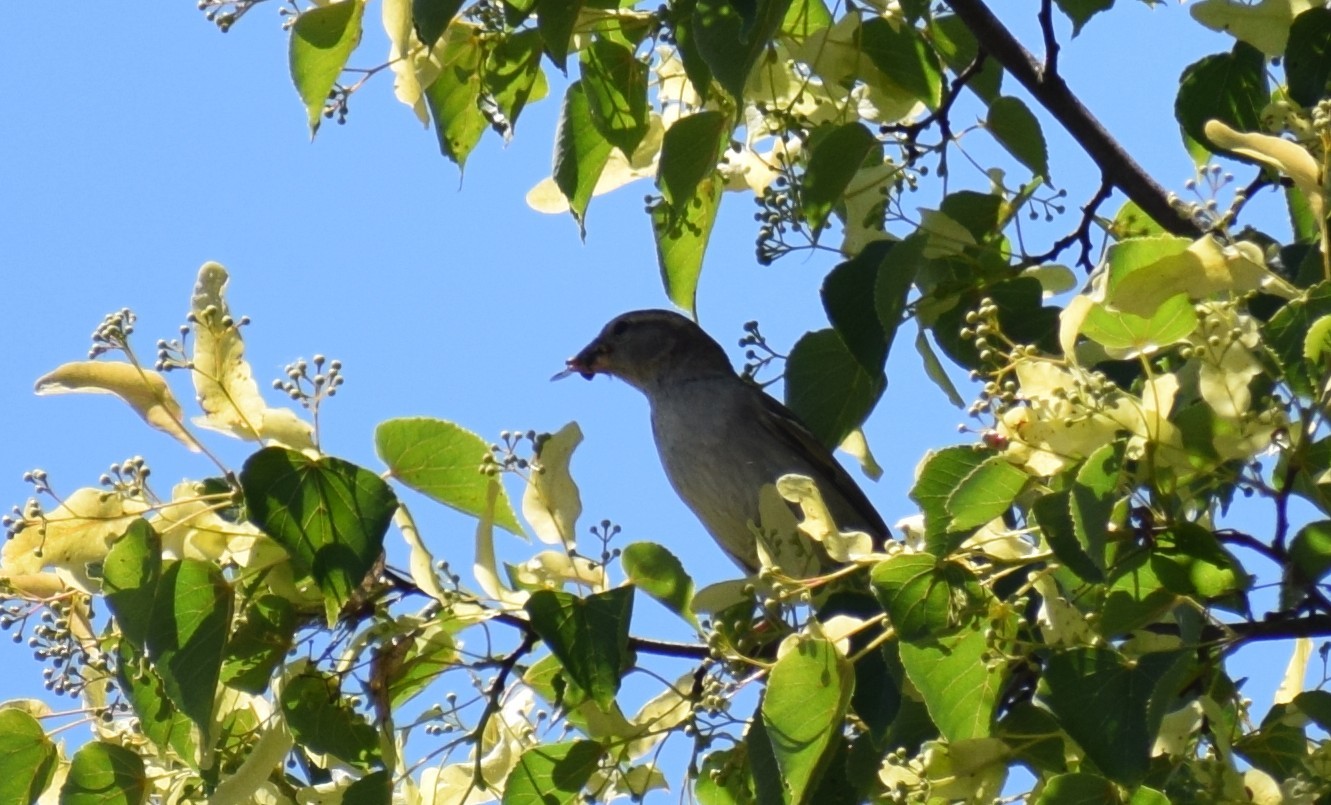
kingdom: Animalia
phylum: Chordata
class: Aves
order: Passeriformes
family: Passeridae
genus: Passer
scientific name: Passer domesticus
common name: House sparrow
